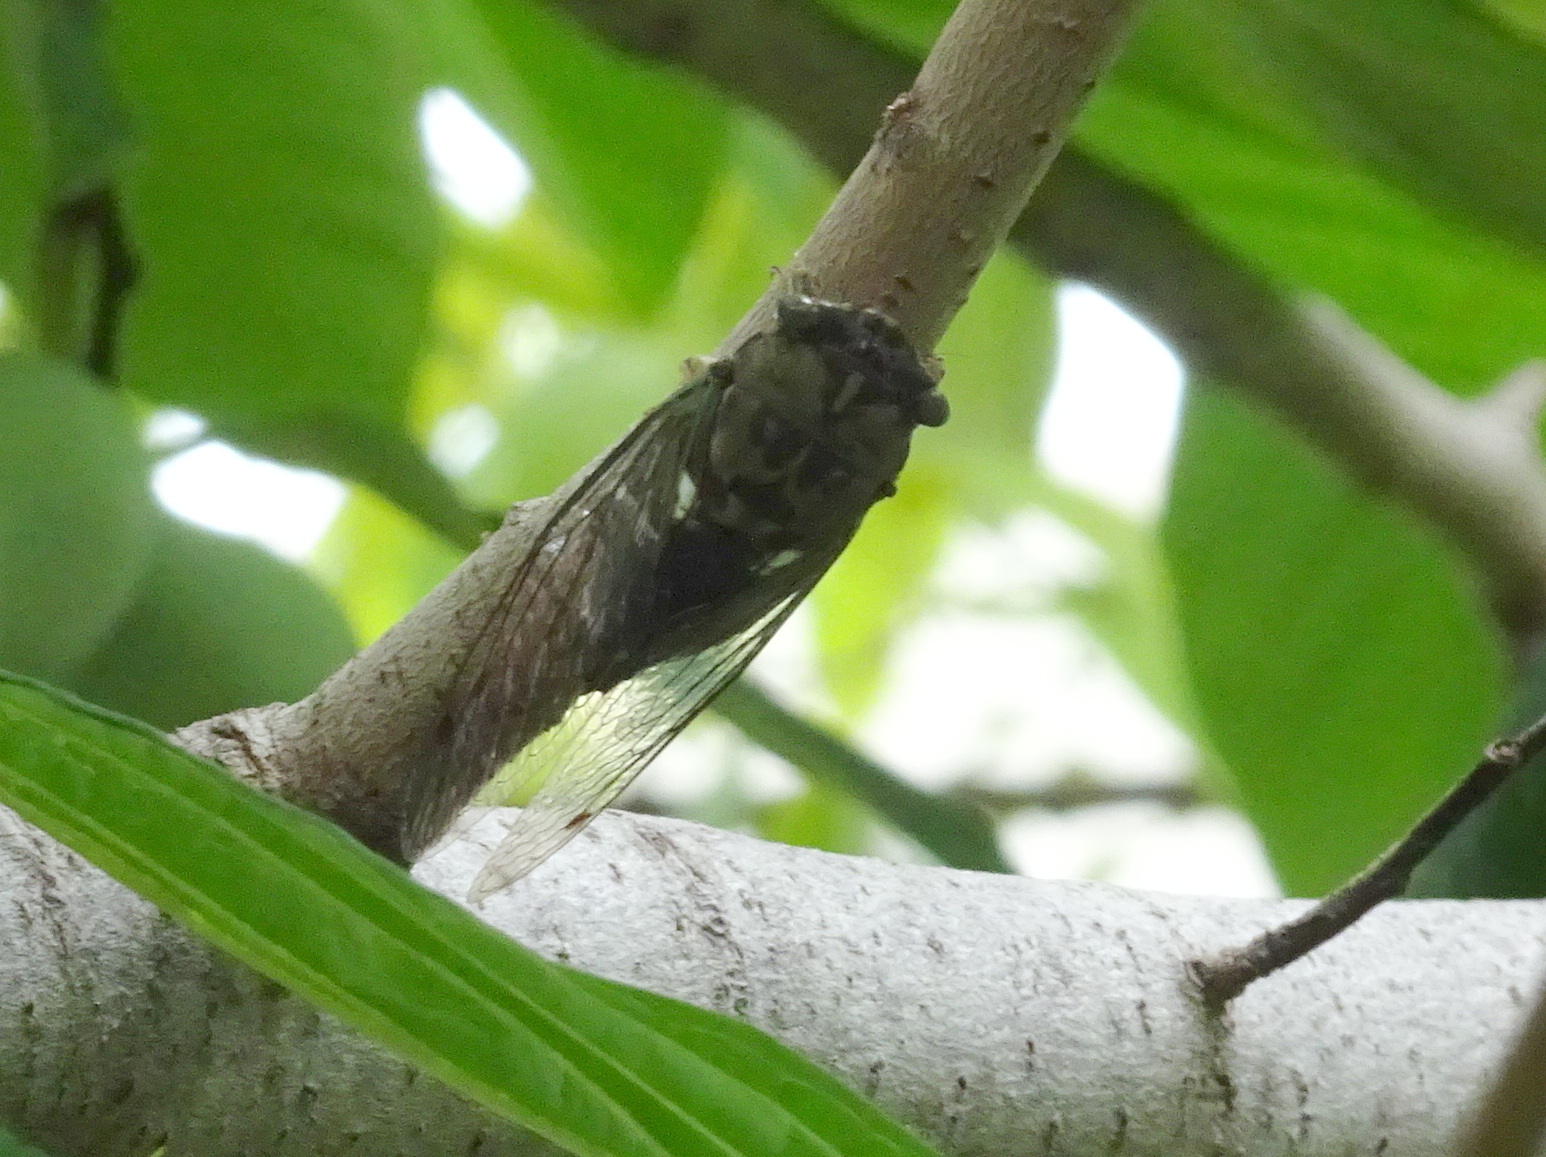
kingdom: Animalia
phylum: Arthropoda
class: Insecta
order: Hemiptera
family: Cicadidae
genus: Neotibicen
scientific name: Neotibicen pruinosus
